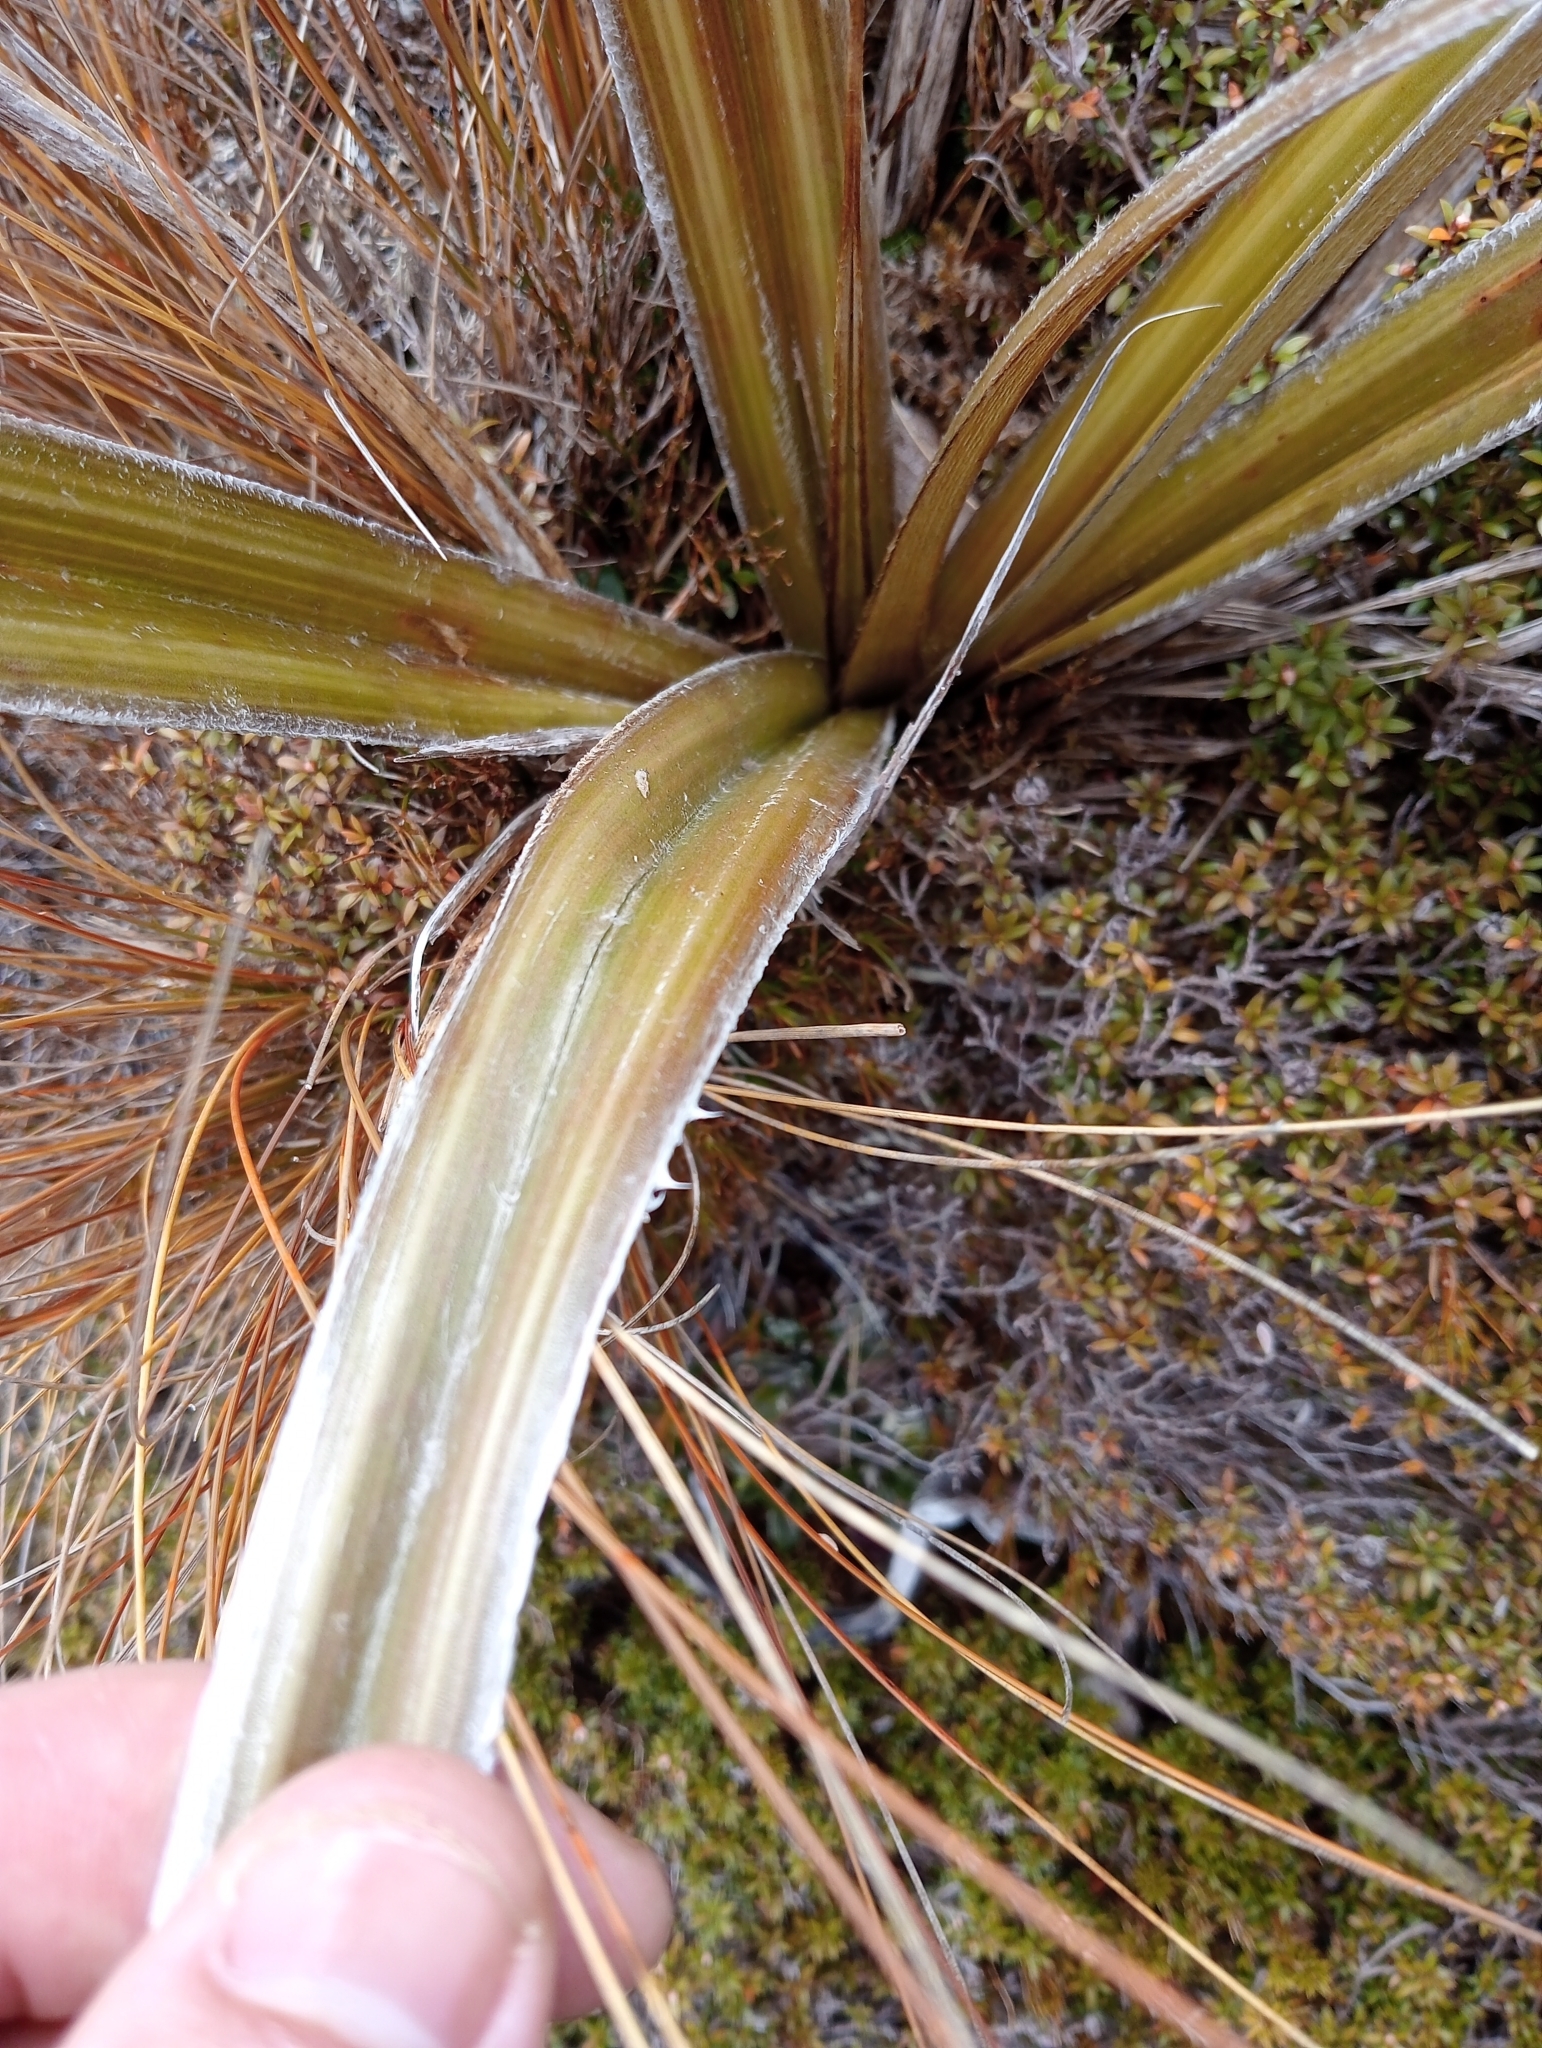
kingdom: Plantae
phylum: Tracheophyta
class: Liliopsida
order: Asparagales
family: Asteliaceae
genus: Astelia
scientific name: Astelia nervosa
